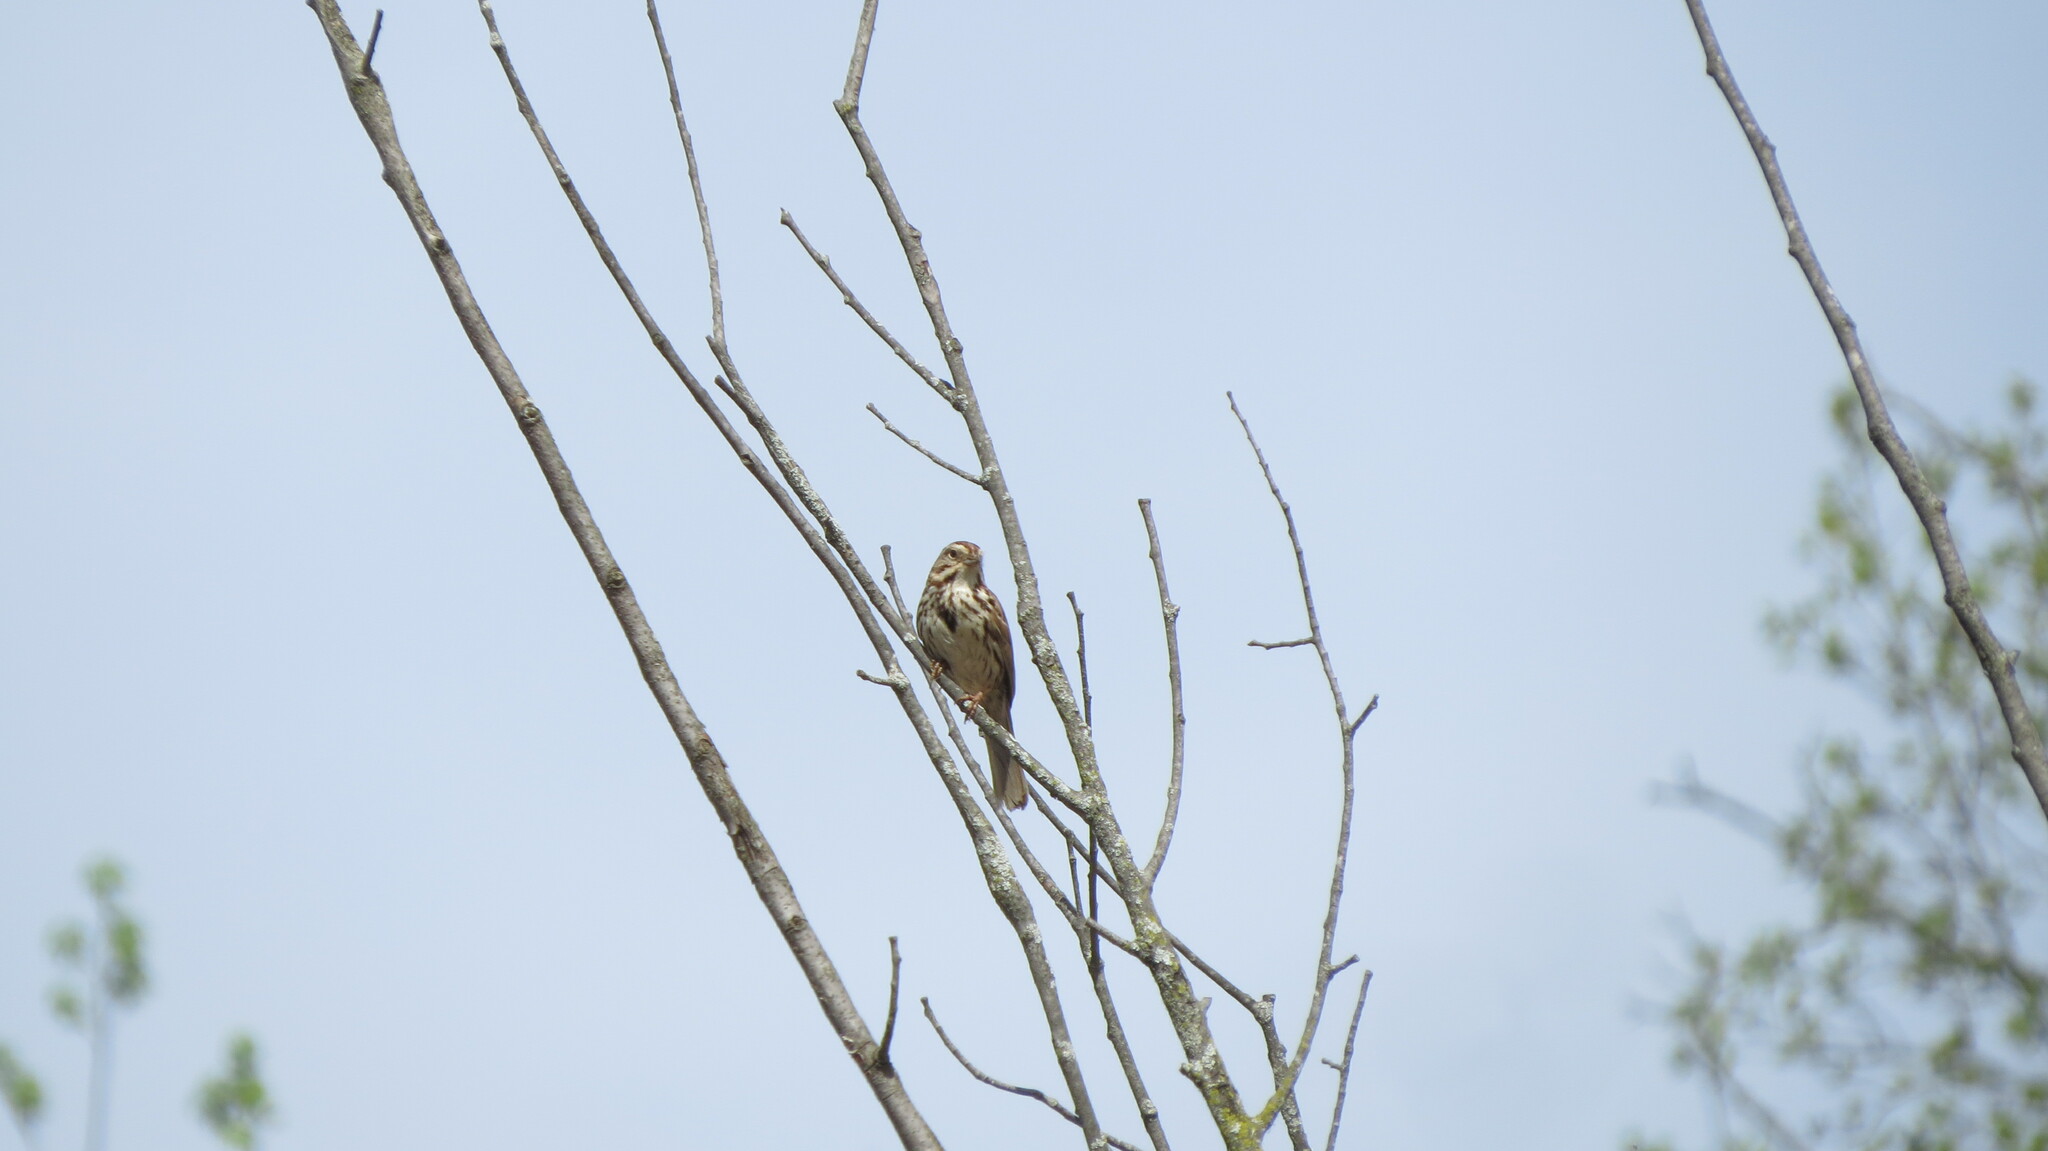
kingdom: Animalia
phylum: Chordata
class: Aves
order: Passeriformes
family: Passerellidae
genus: Melospiza
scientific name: Melospiza melodia
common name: Song sparrow
